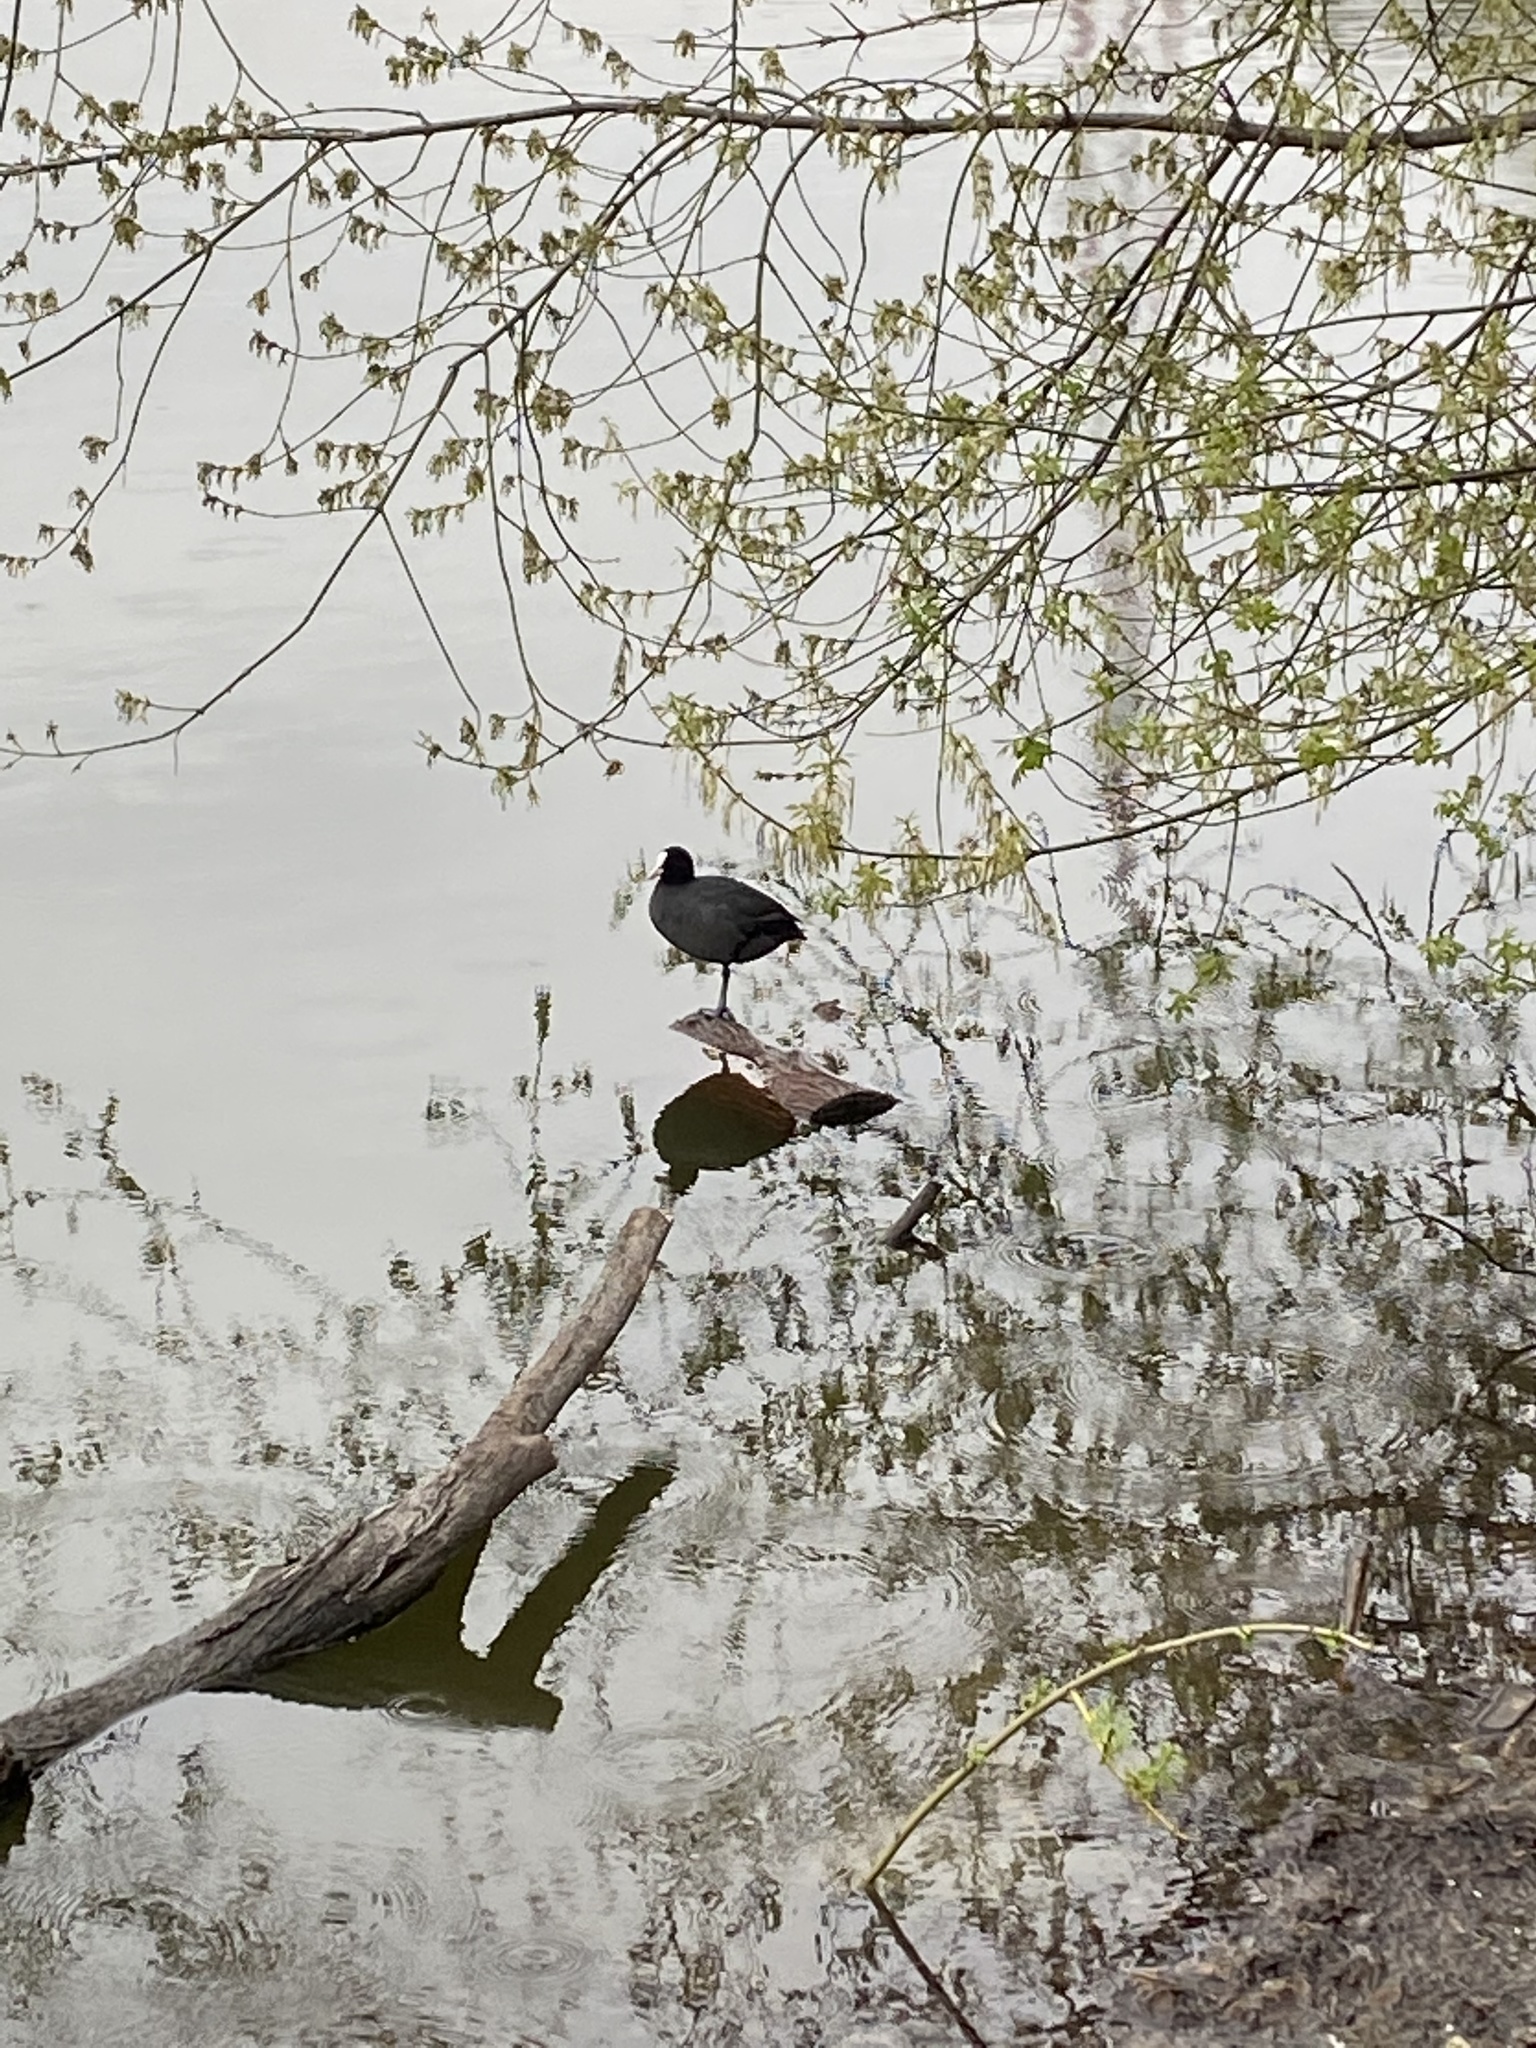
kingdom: Animalia
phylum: Chordata
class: Aves
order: Gruiformes
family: Rallidae
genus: Fulica
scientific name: Fulica atra
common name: Eurasian coot
